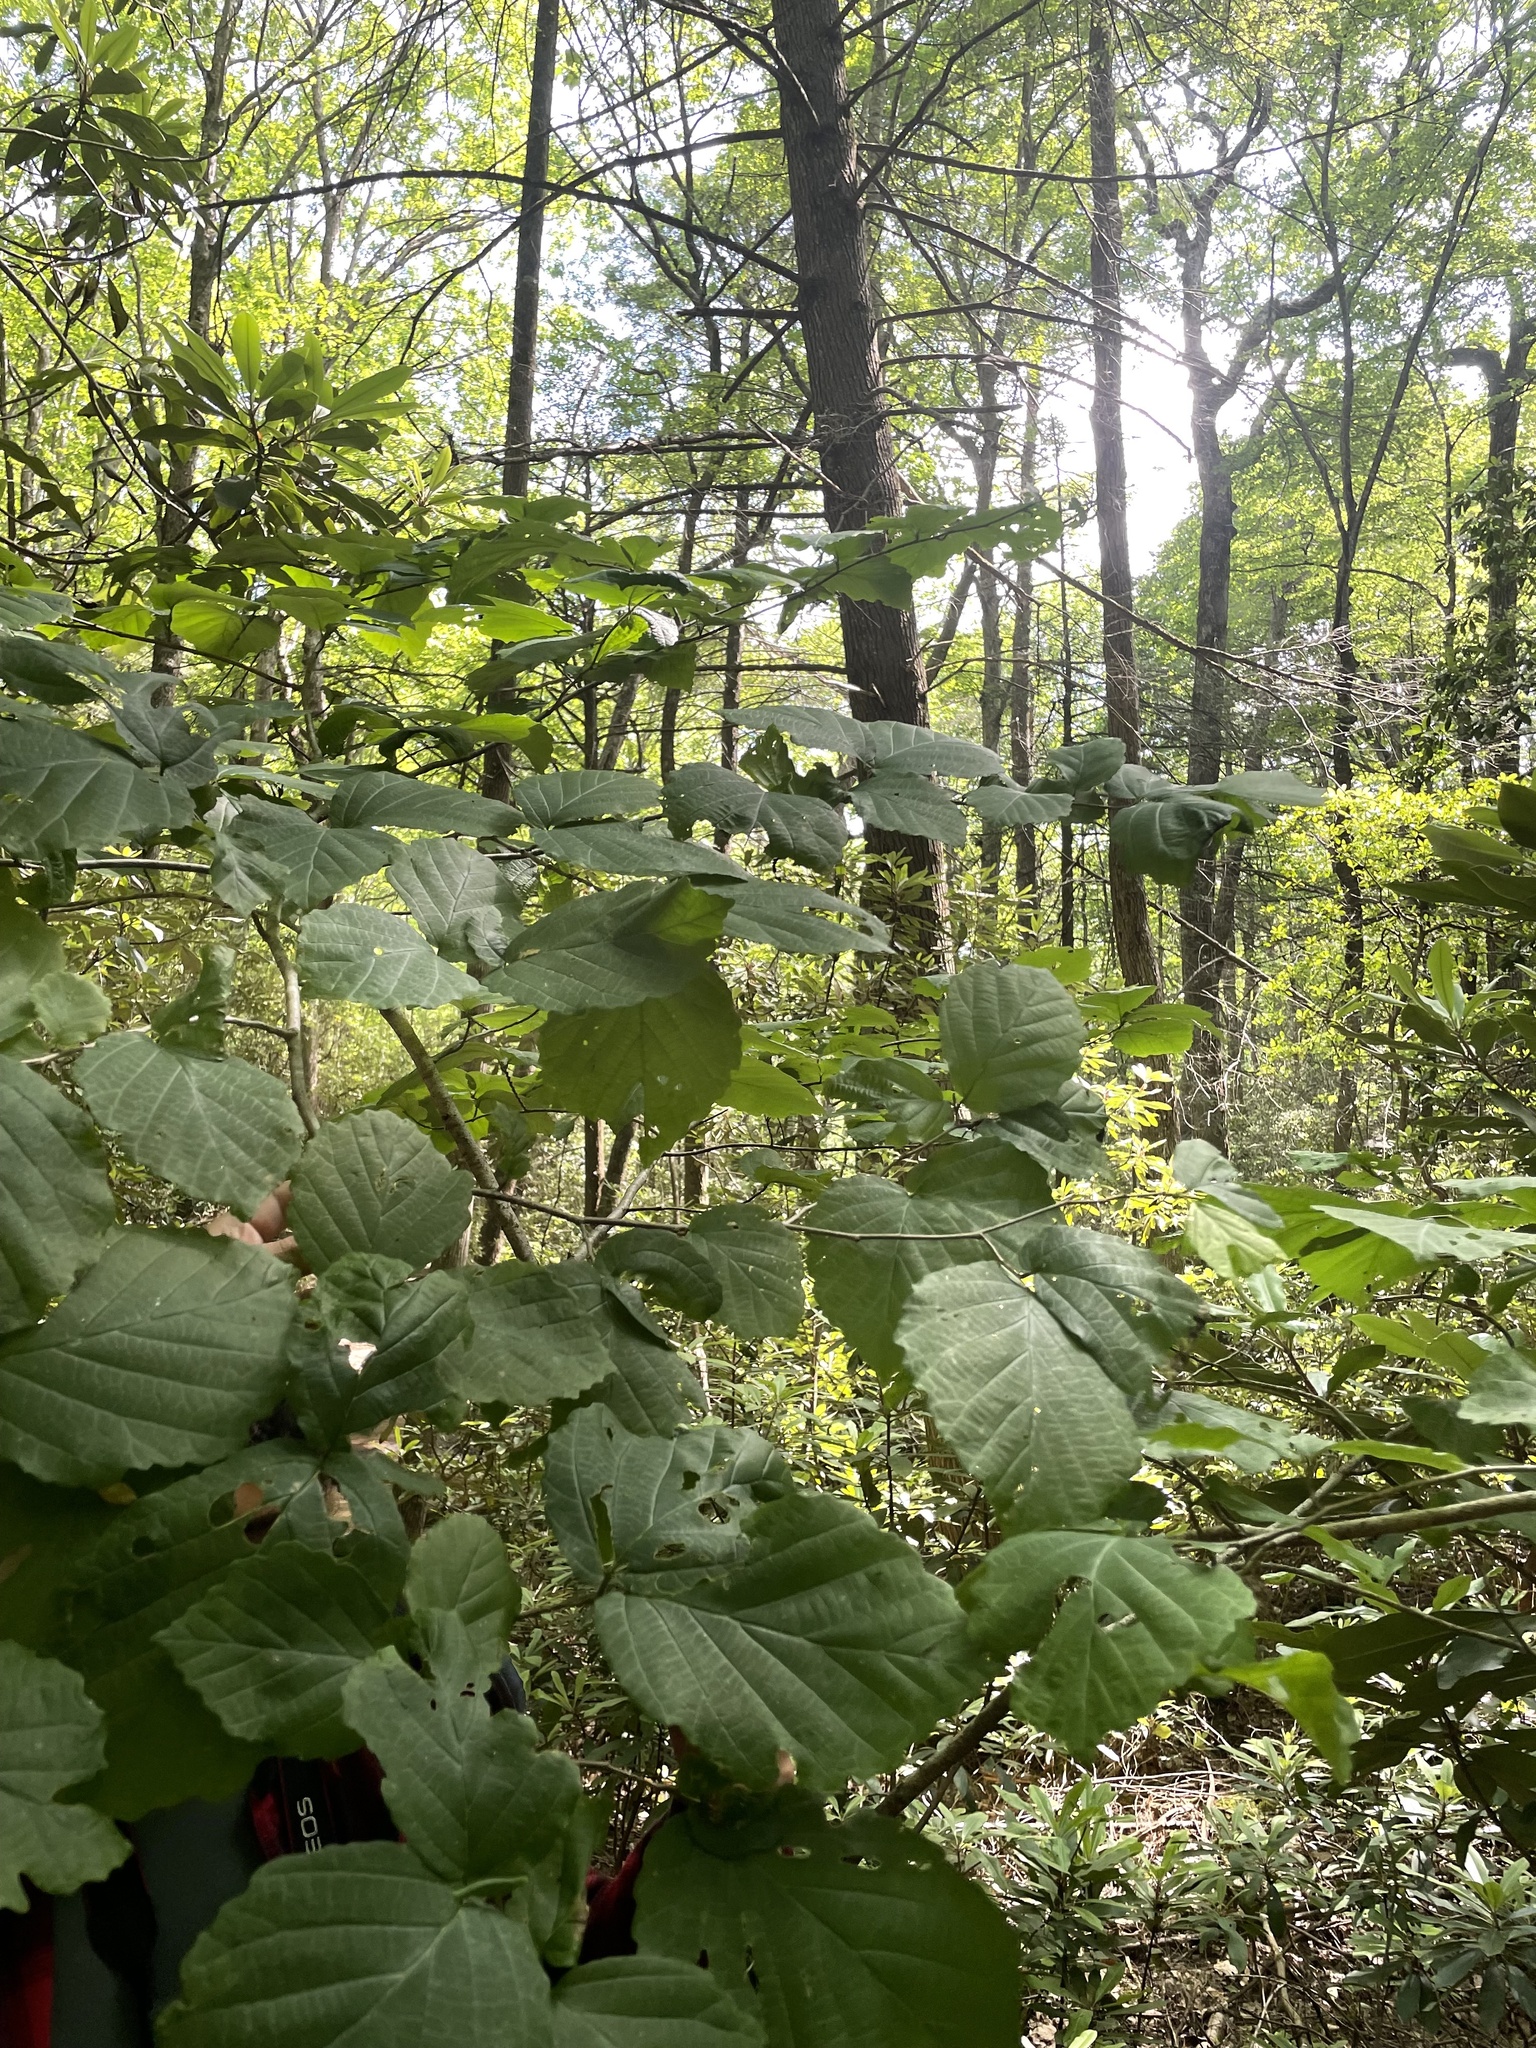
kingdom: Plantae
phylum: Tracheophyta
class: Magnoliopsida
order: Saxifragales
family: Hamamelidaceae
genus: Hamamelis
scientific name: Hamamelis virginiana
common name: Witch-hazel
